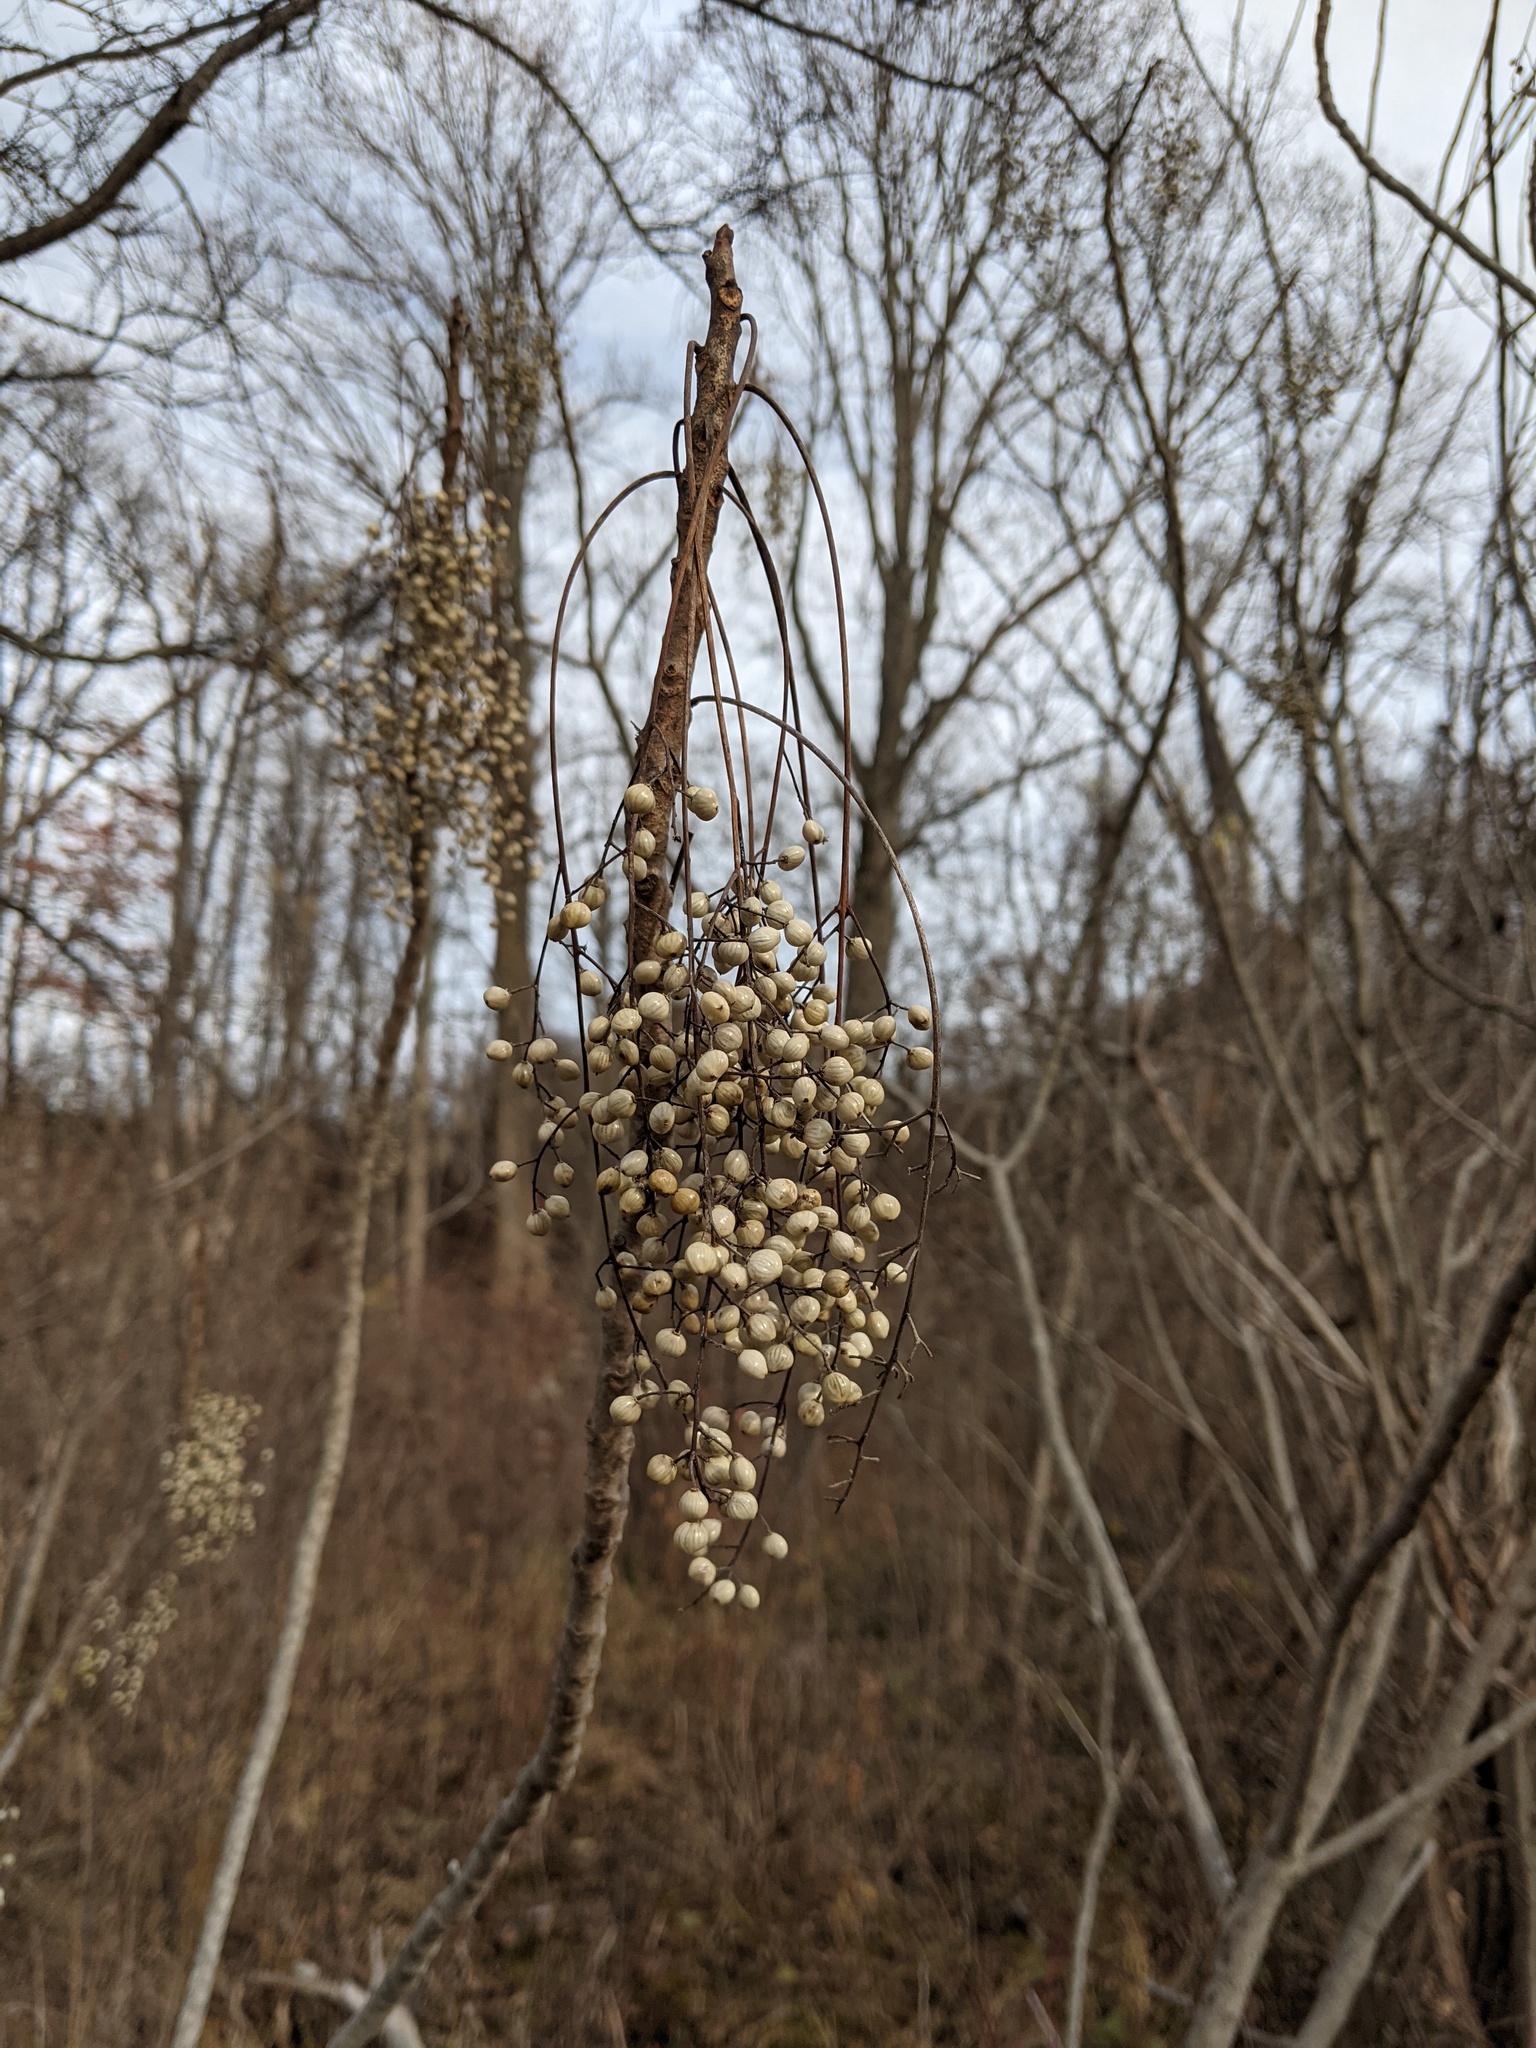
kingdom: Plantae
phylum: Tracheophyta
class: Magnoliopsida
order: Sapindales
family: Anacardiaceae
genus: Toxicodendron
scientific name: Toxicodendron vernix
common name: Poison sumac
